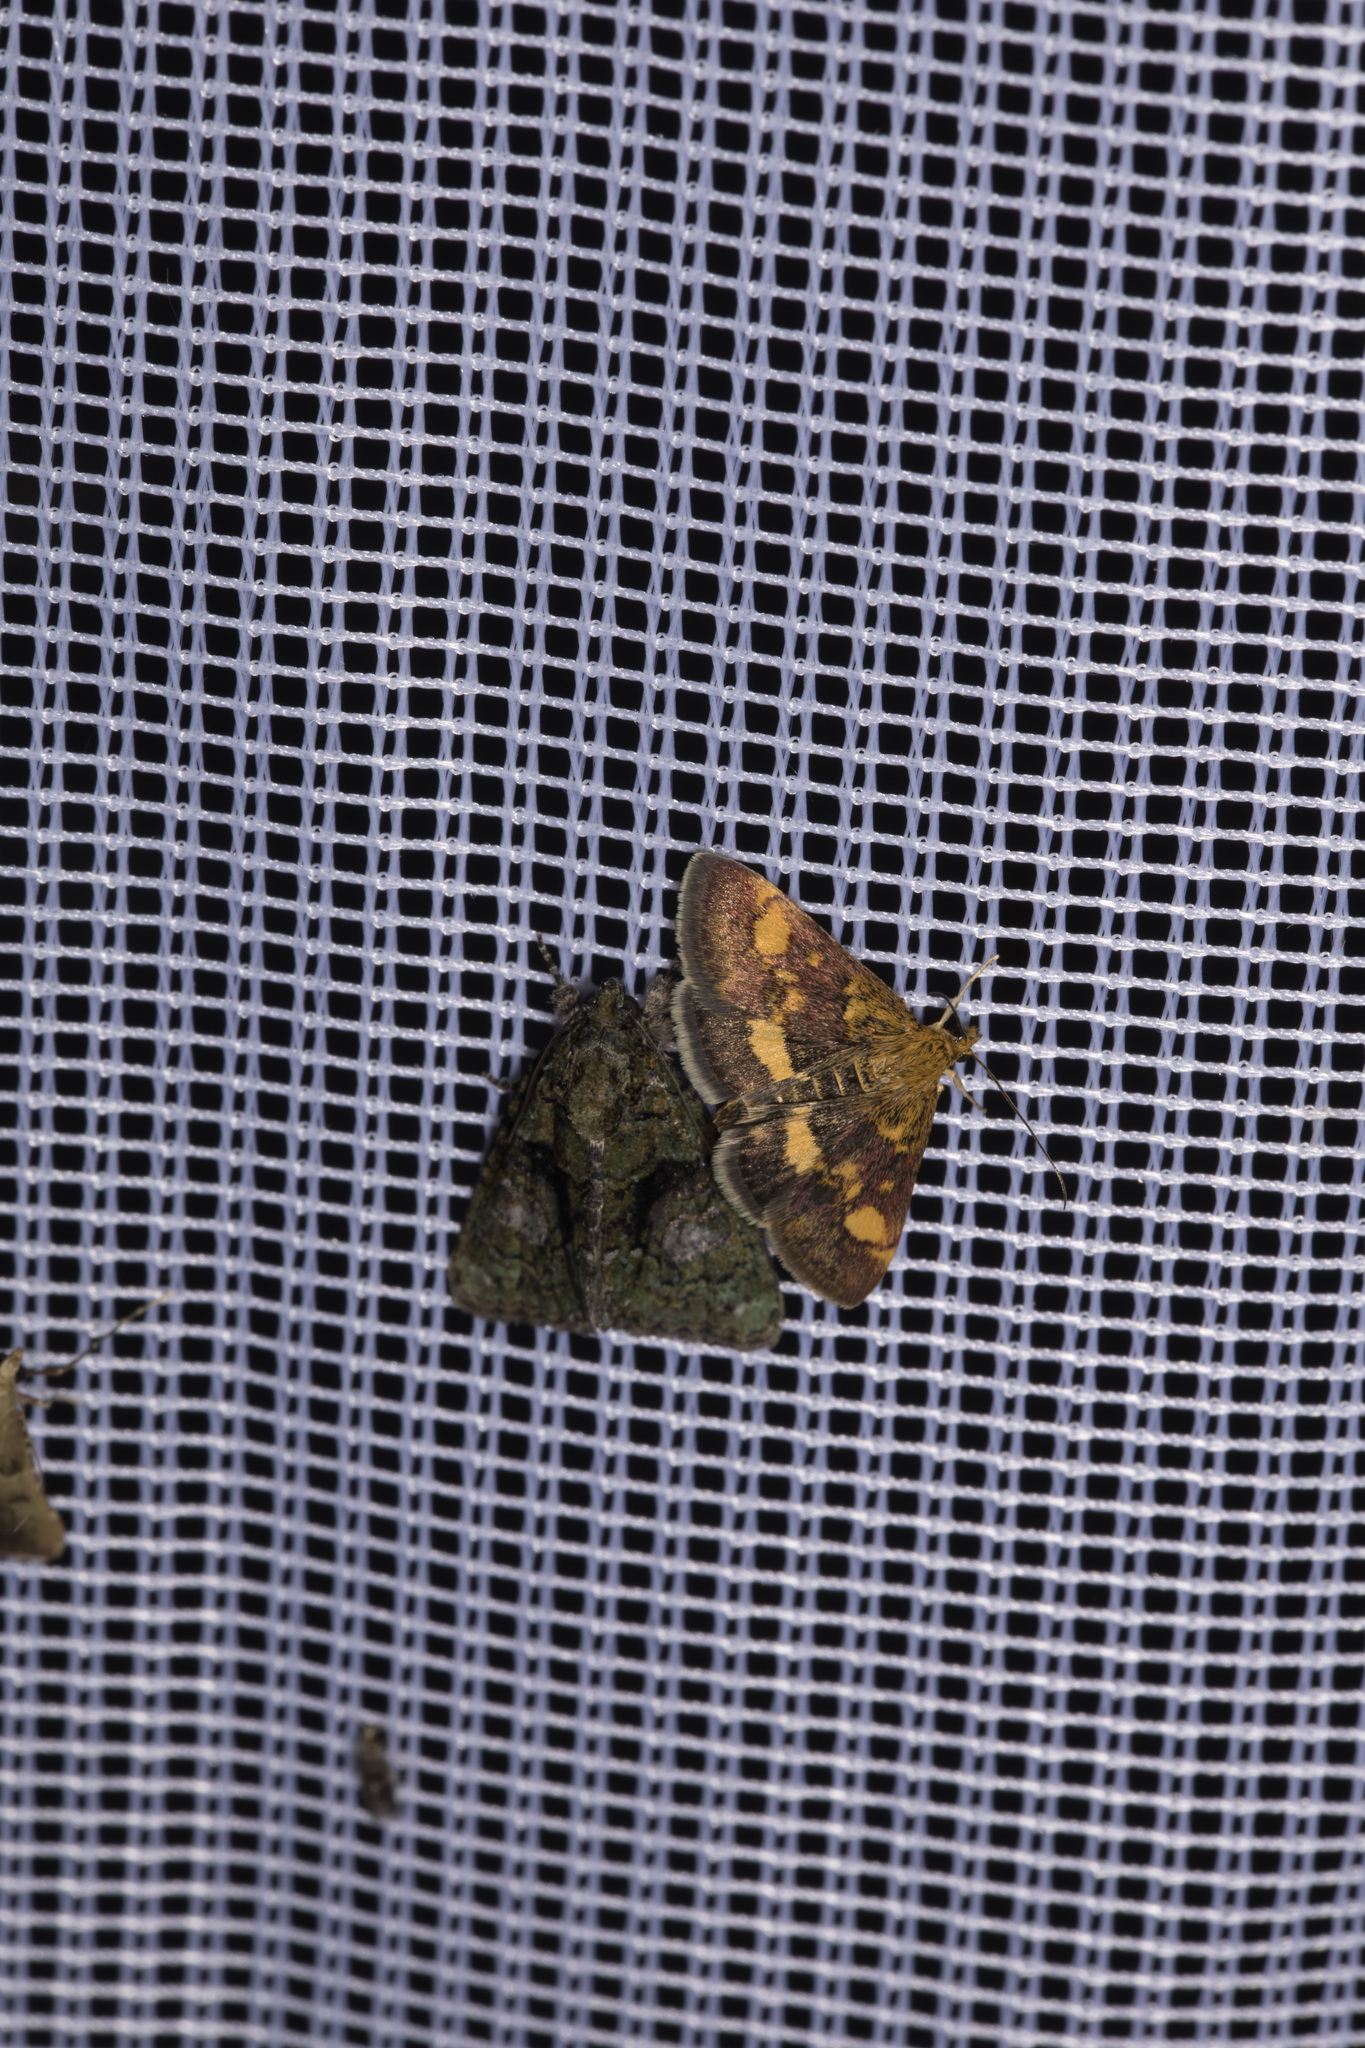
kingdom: Animalia
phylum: Arthropoda
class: Insecta
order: Lepidoptera
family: Crambidae
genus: Pyrausta
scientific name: Pyrausta aurata
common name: Small purple & gold
